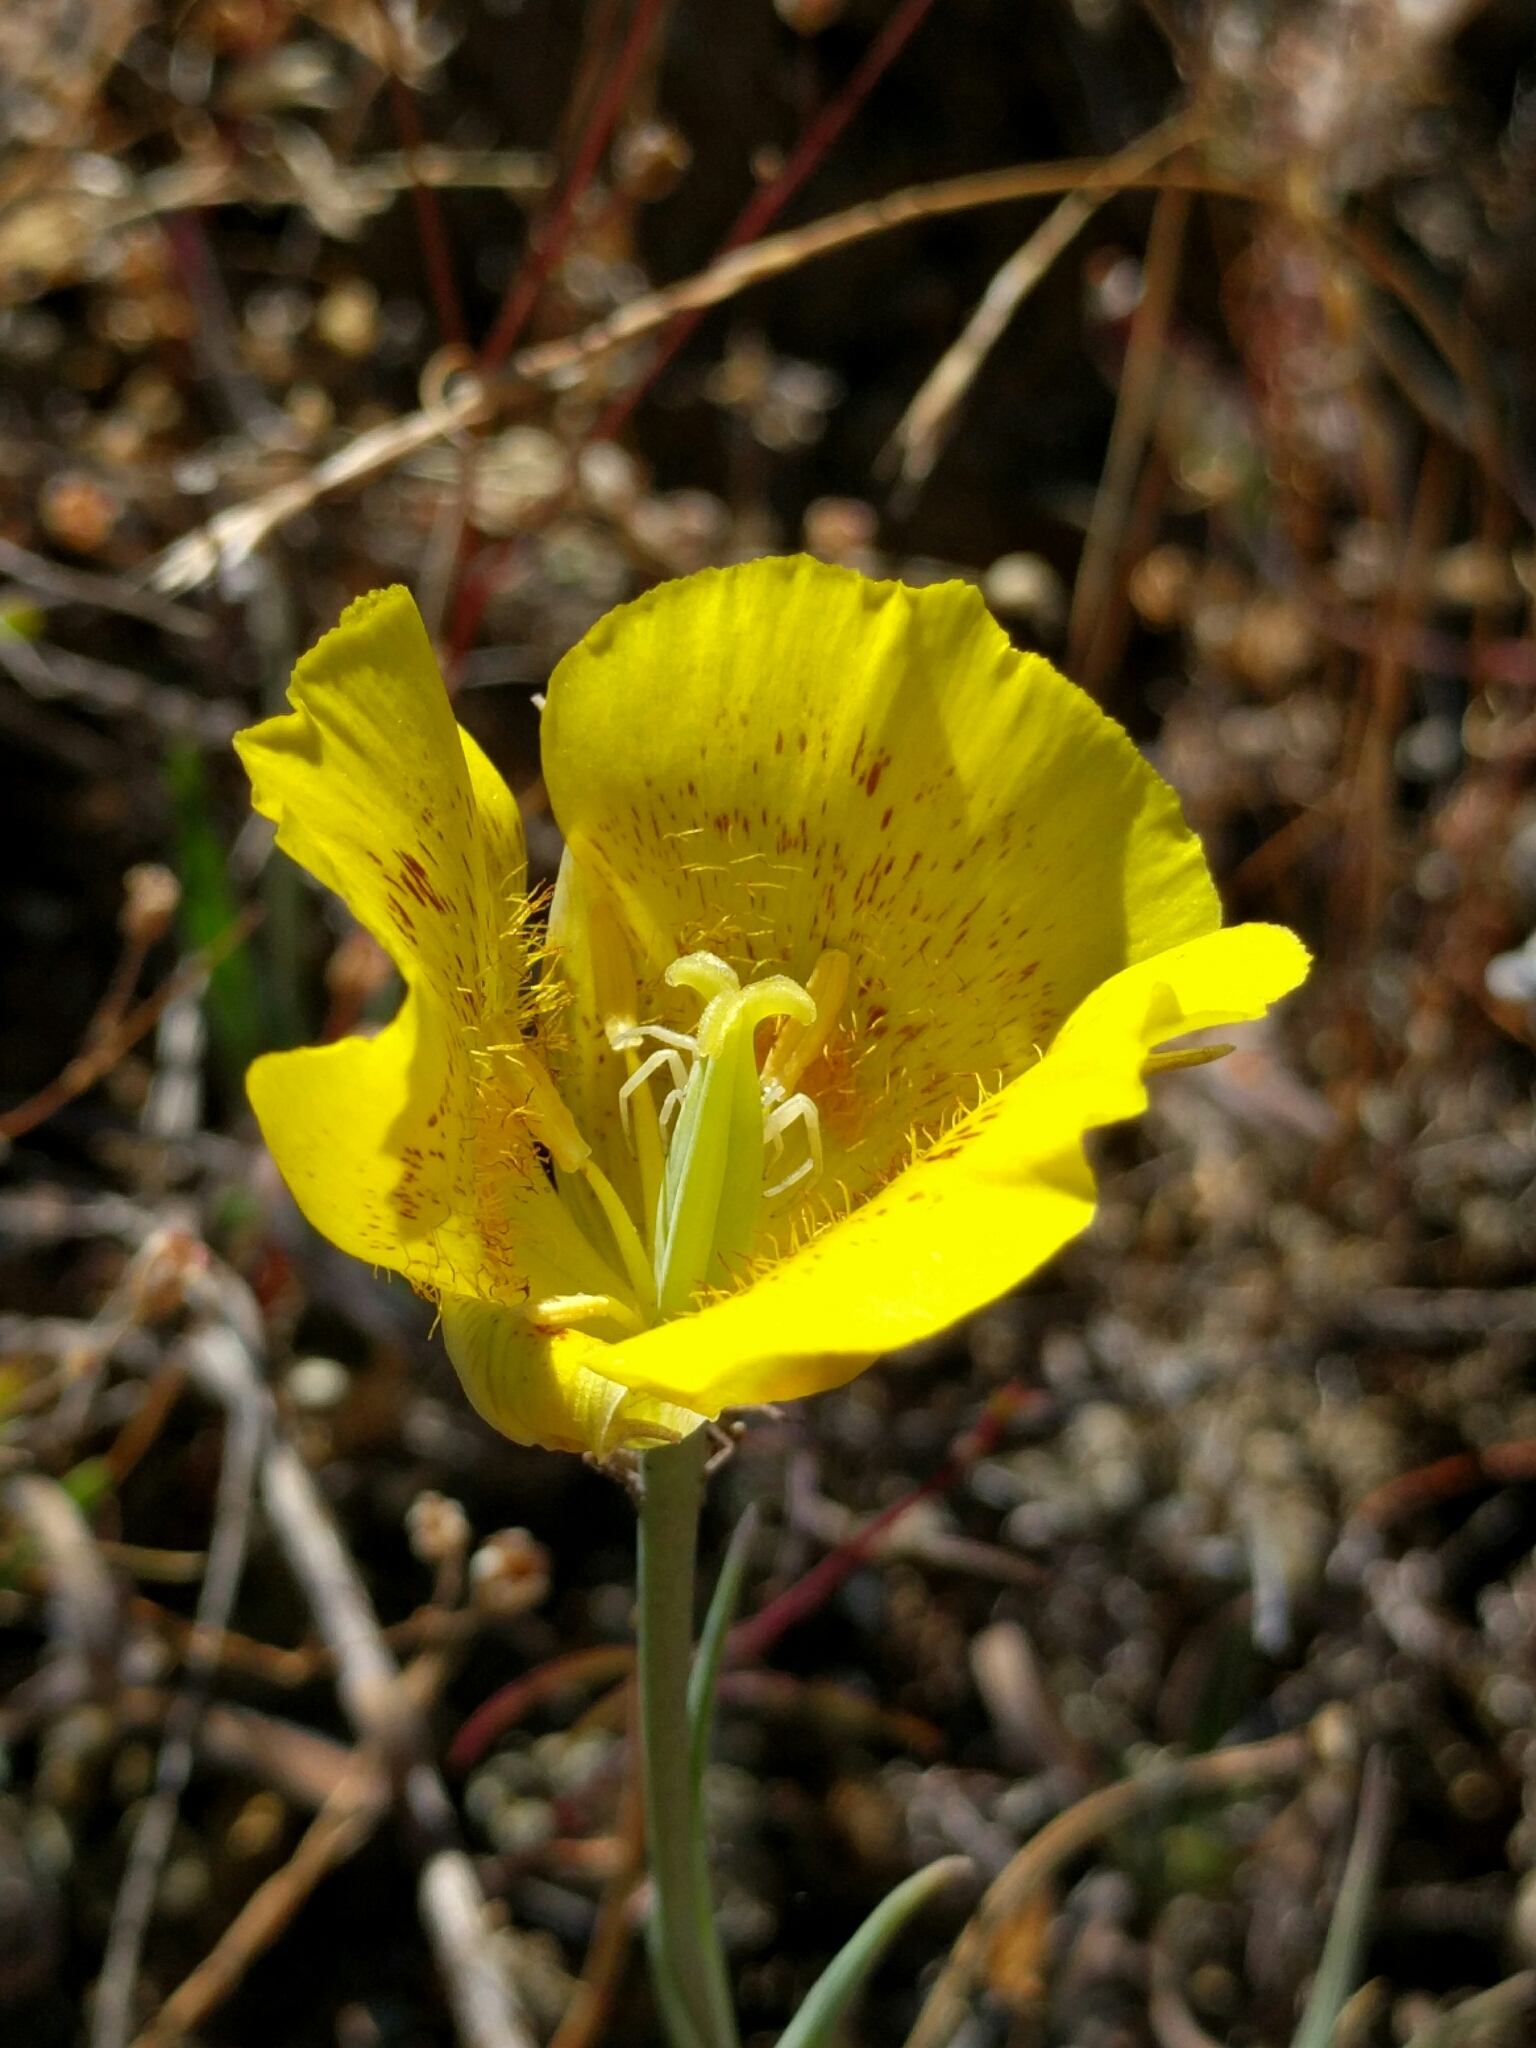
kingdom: Plantae
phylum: Tracheophyta
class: Liliopsida
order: Liliales
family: Liliaceae
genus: Calochortus
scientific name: Calochortus luteus
